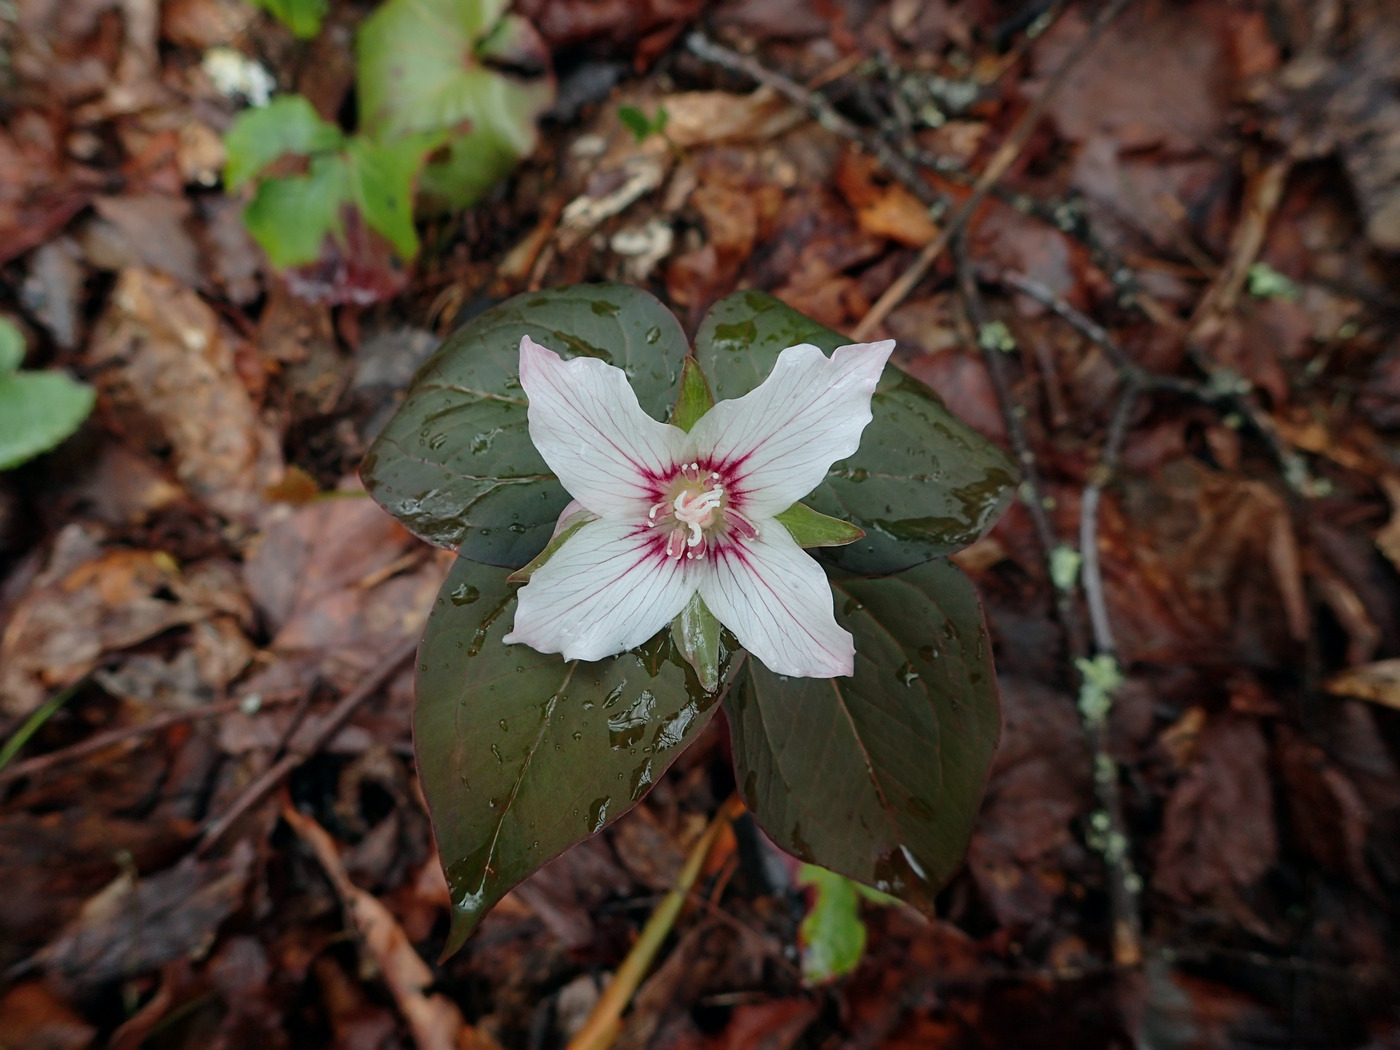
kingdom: Plantae
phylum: Tracheophyta
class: Liliopsida
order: Liliales
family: Melanthiaceae
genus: Trillium
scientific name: Trillium undulatum
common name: Paint trillium
